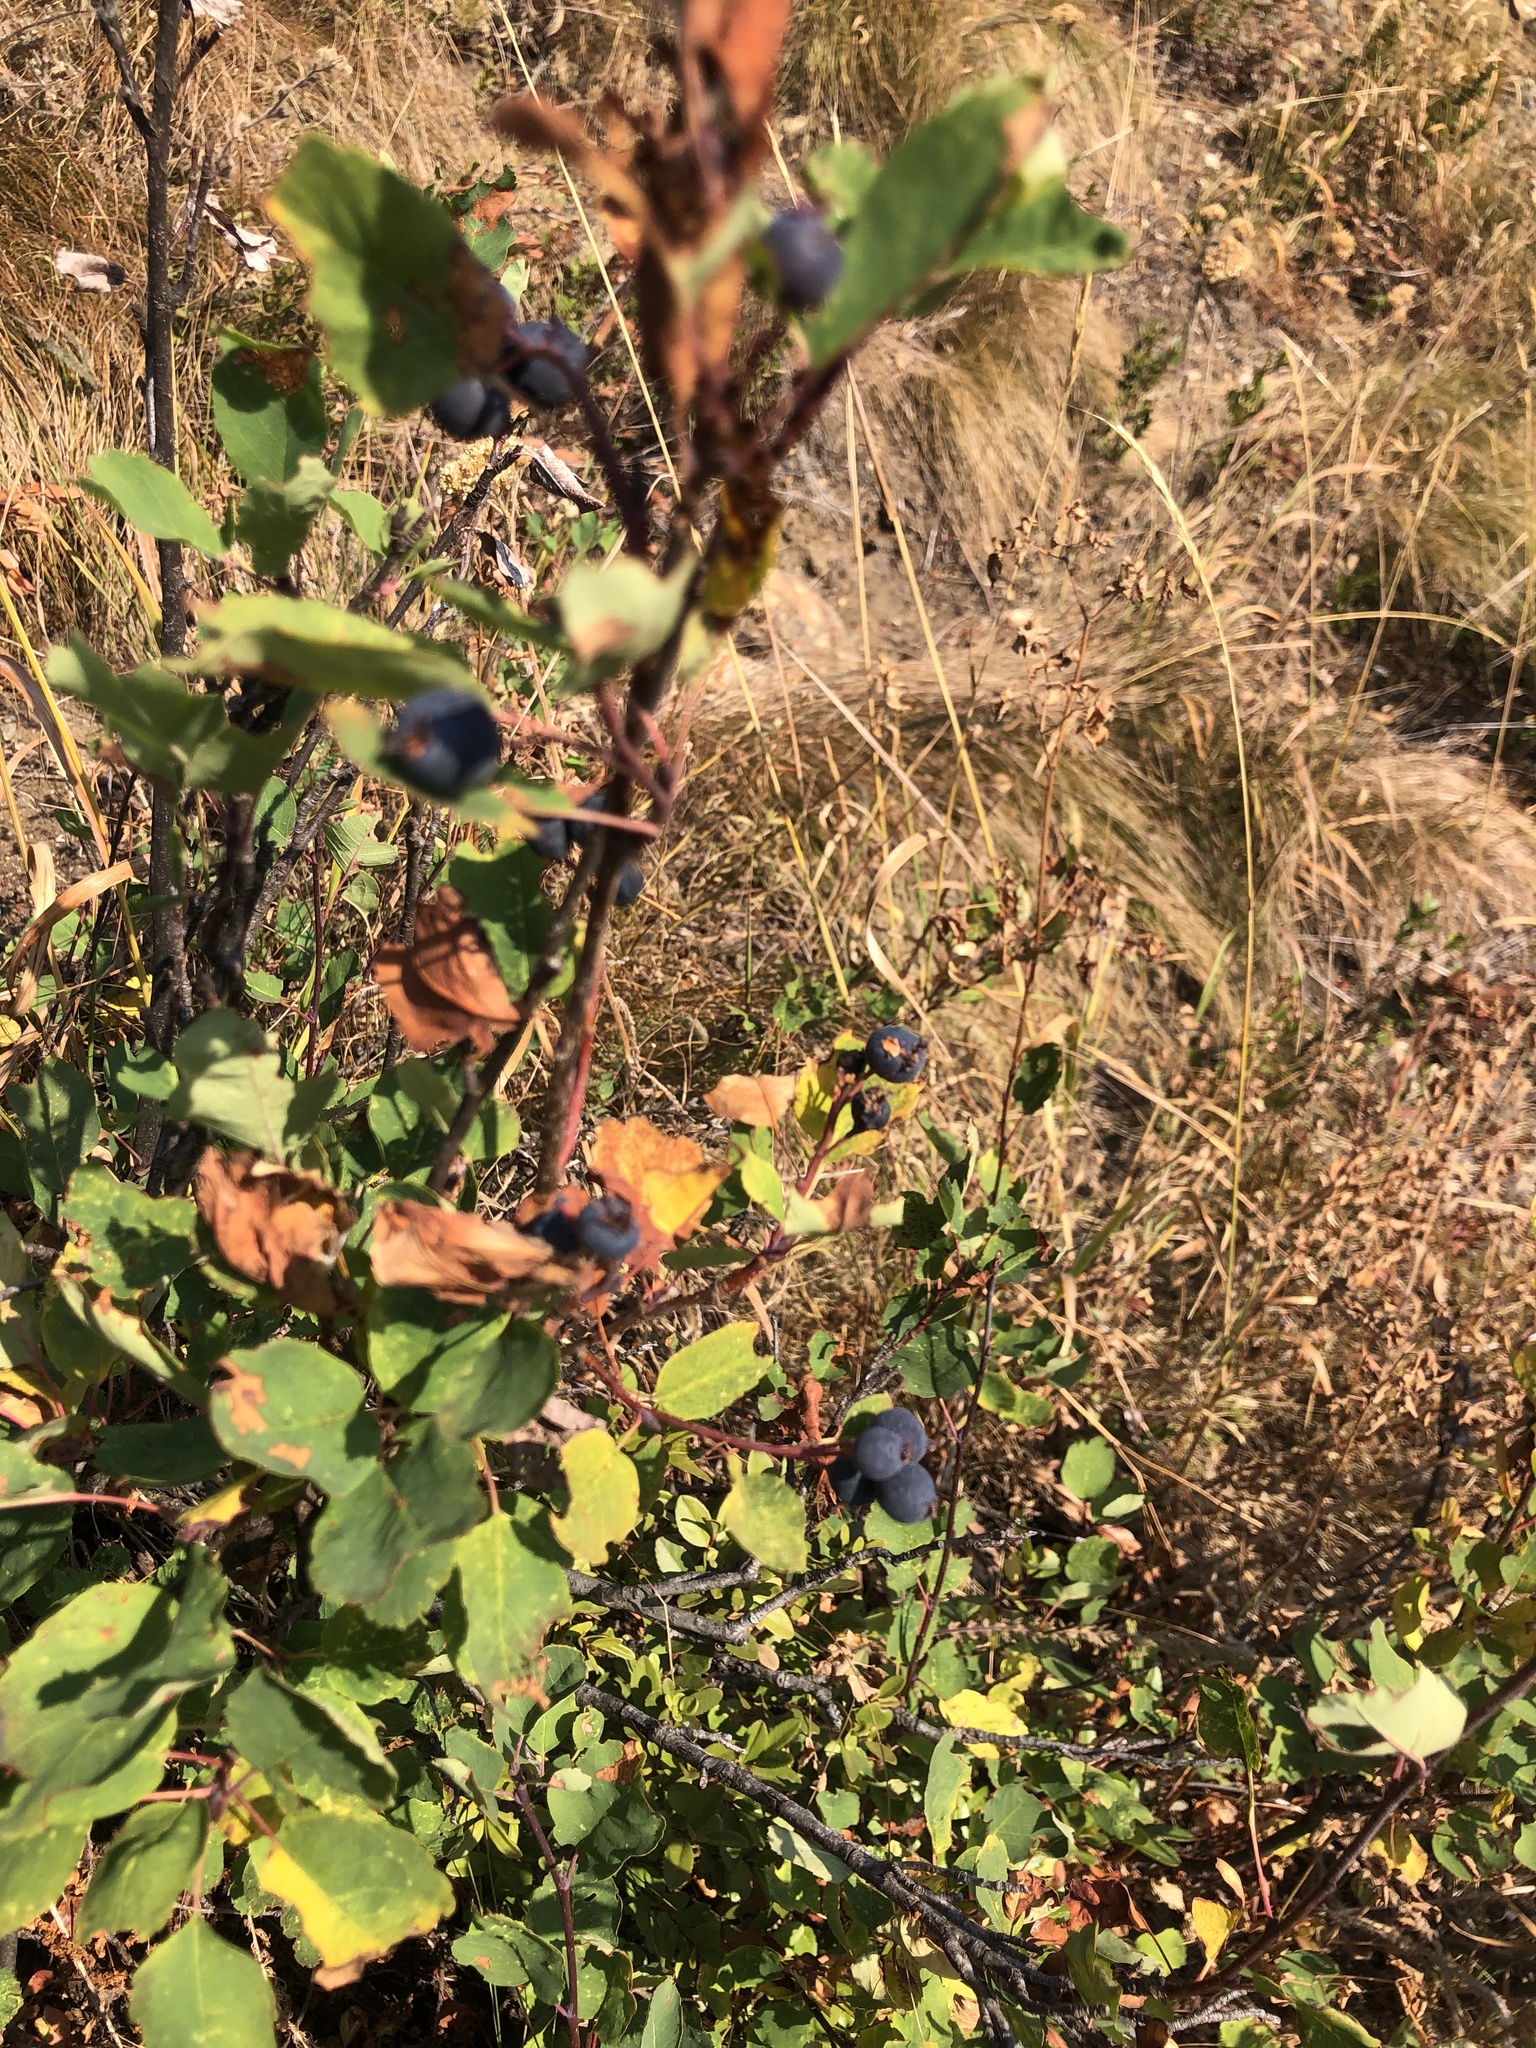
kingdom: Plantae
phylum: Tracheophyta
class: Magnoliopsida
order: Rosales
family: Rosaceae
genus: Amelanchier
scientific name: Amelanchier alnifolia
